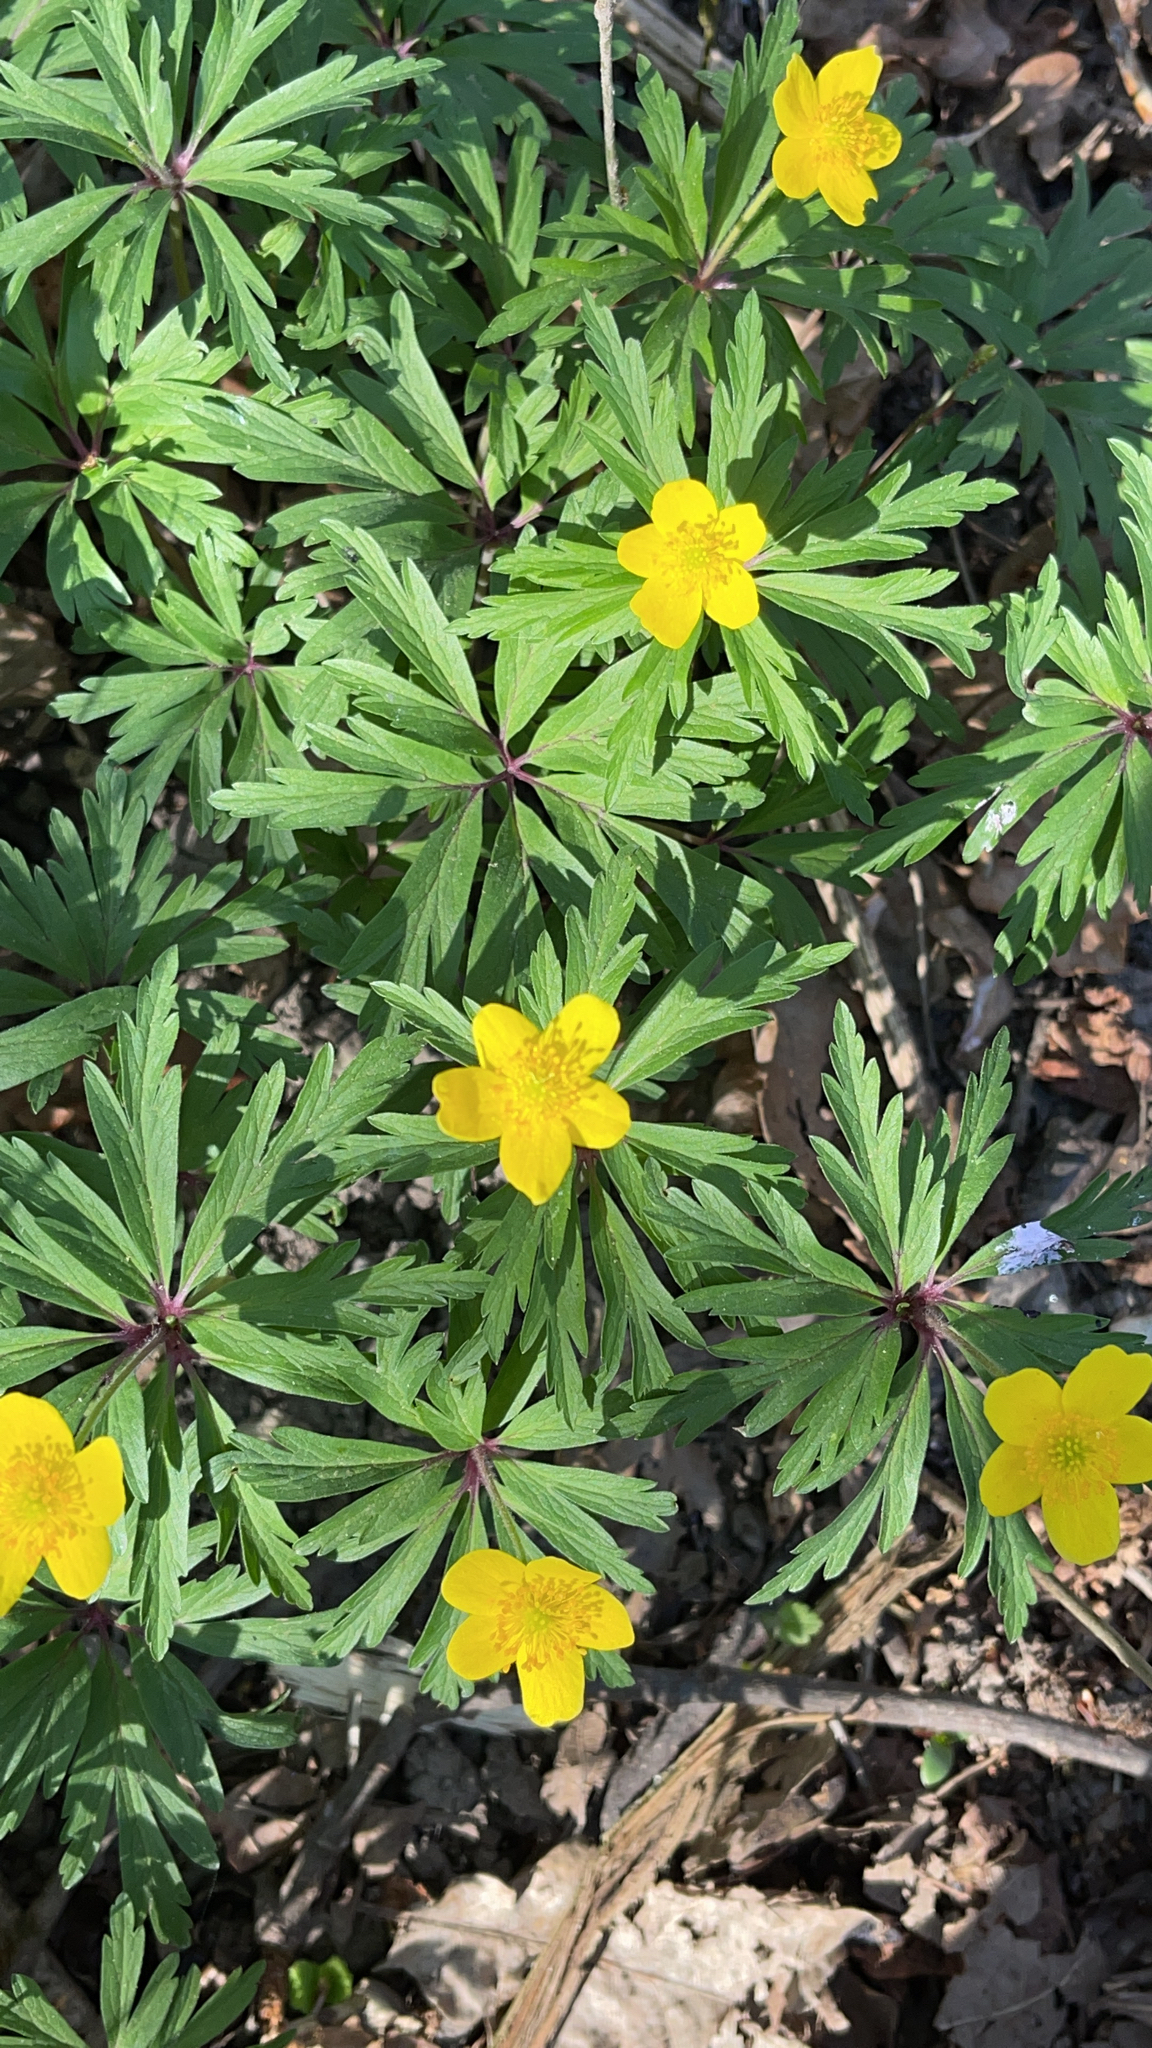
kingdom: Plantae
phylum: Tracheophyta
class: Magnoliopsida
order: Ranunculales
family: Ranunculaceae
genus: Anemone
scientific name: Anemone ranunculoides
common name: Yellow anemone
